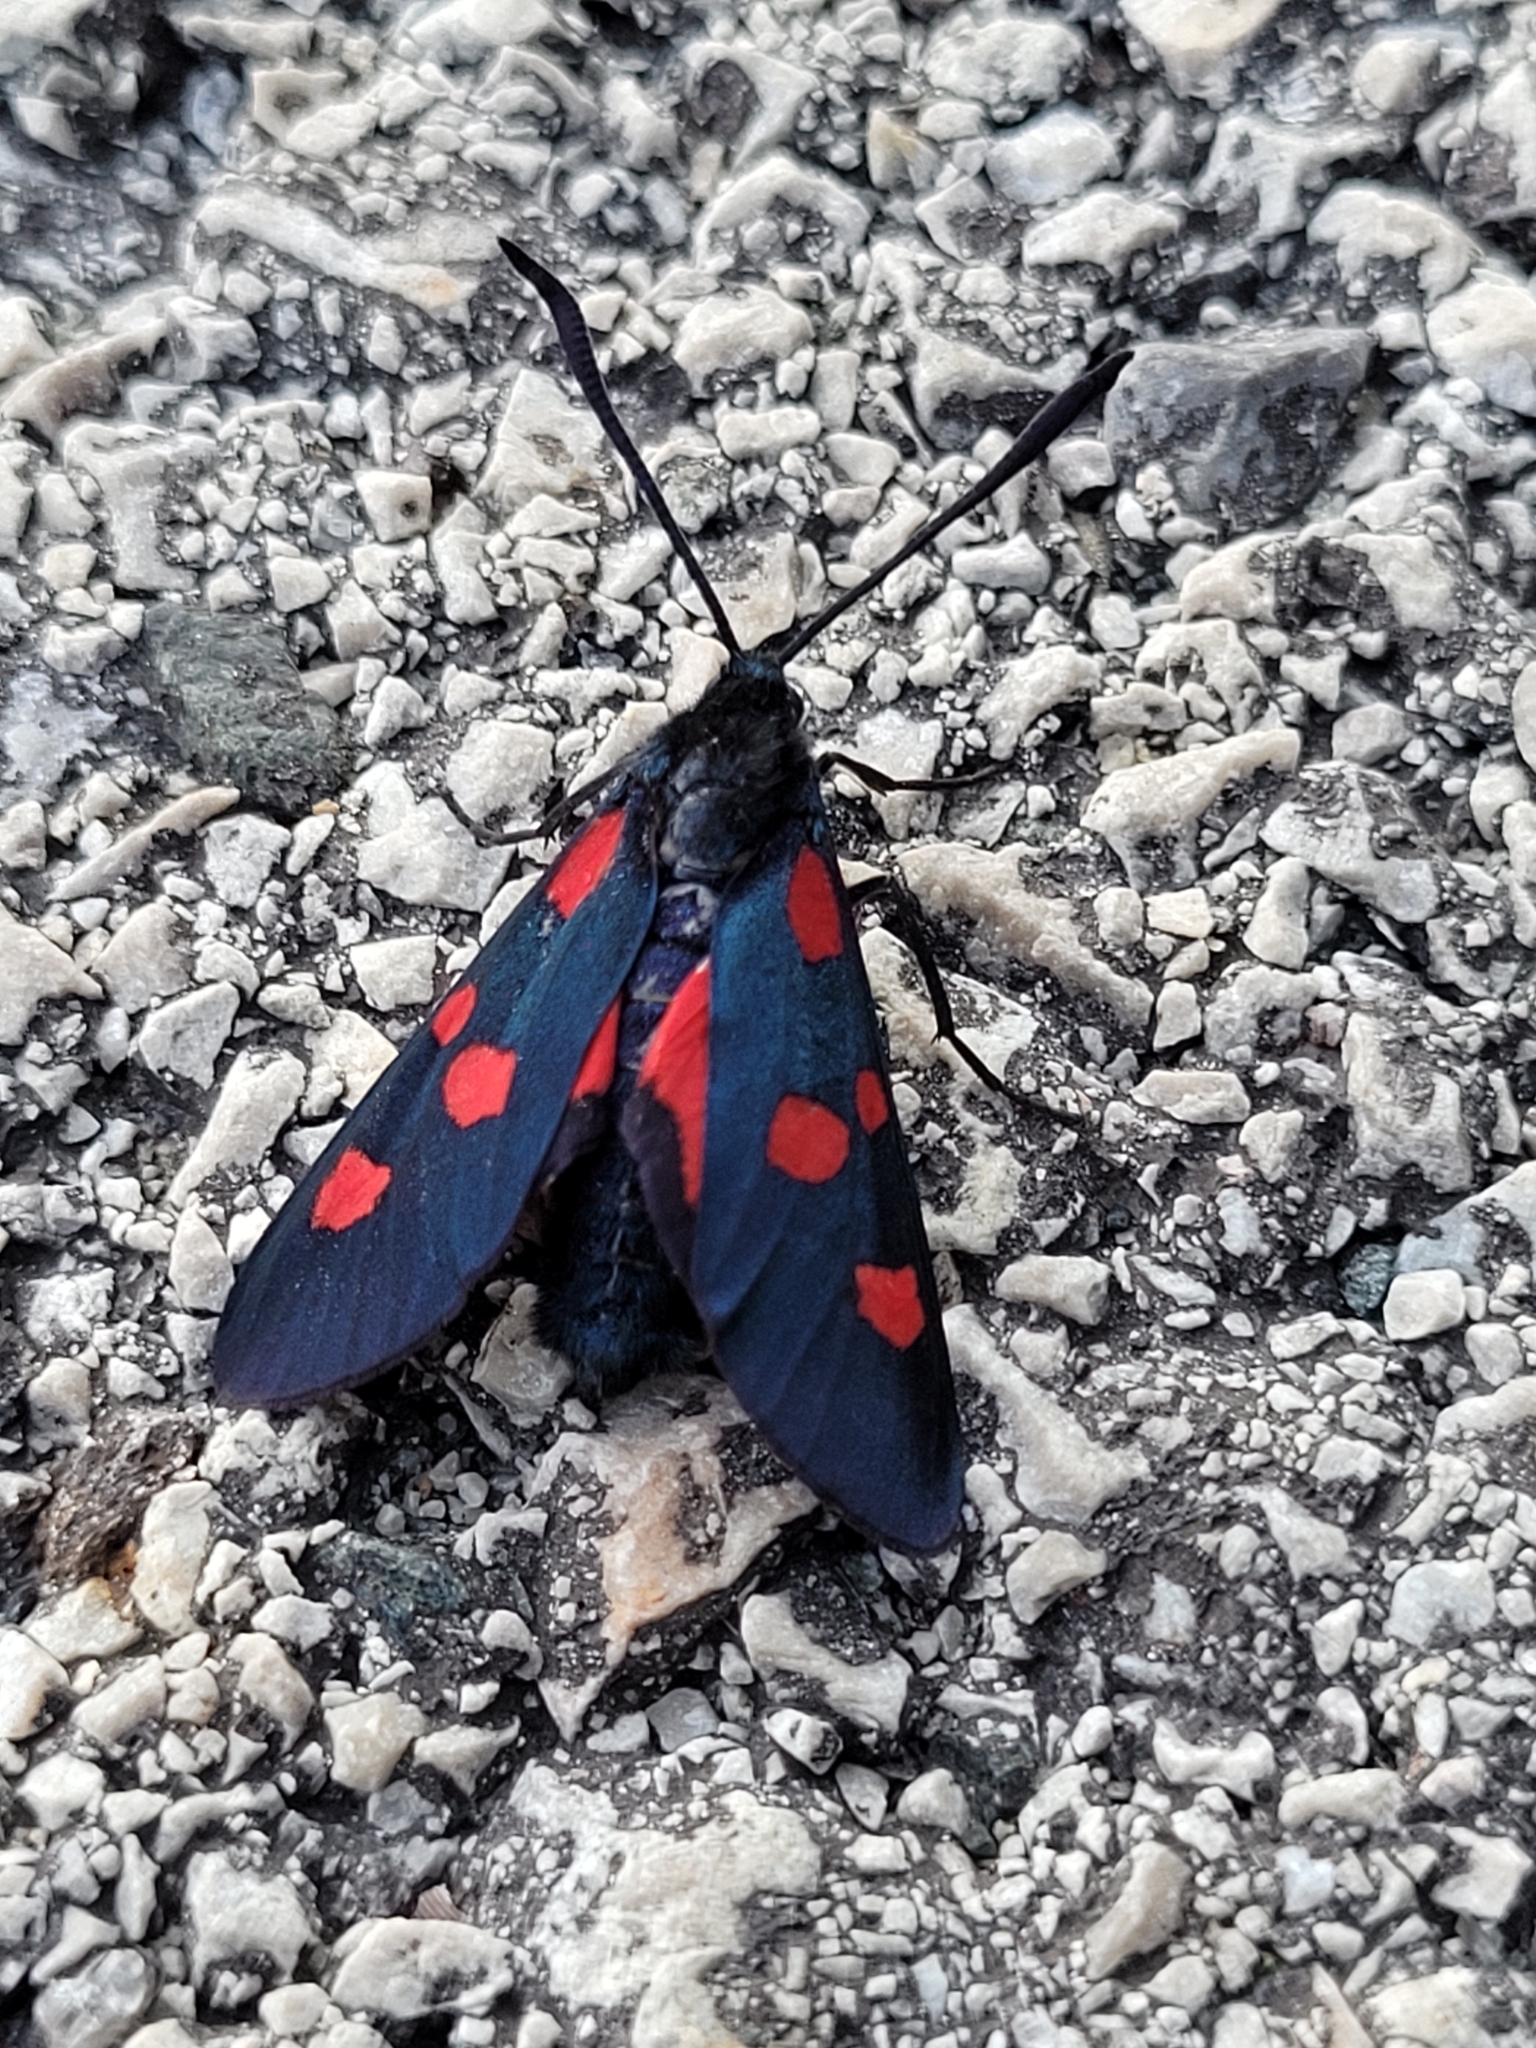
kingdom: Animalia
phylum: Arthropoda
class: Insecta
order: Lepidoptera
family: Zygaenidae
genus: Zygaena
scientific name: Zygaena lonicerae
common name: Narrow-bordered five-spot burnet
